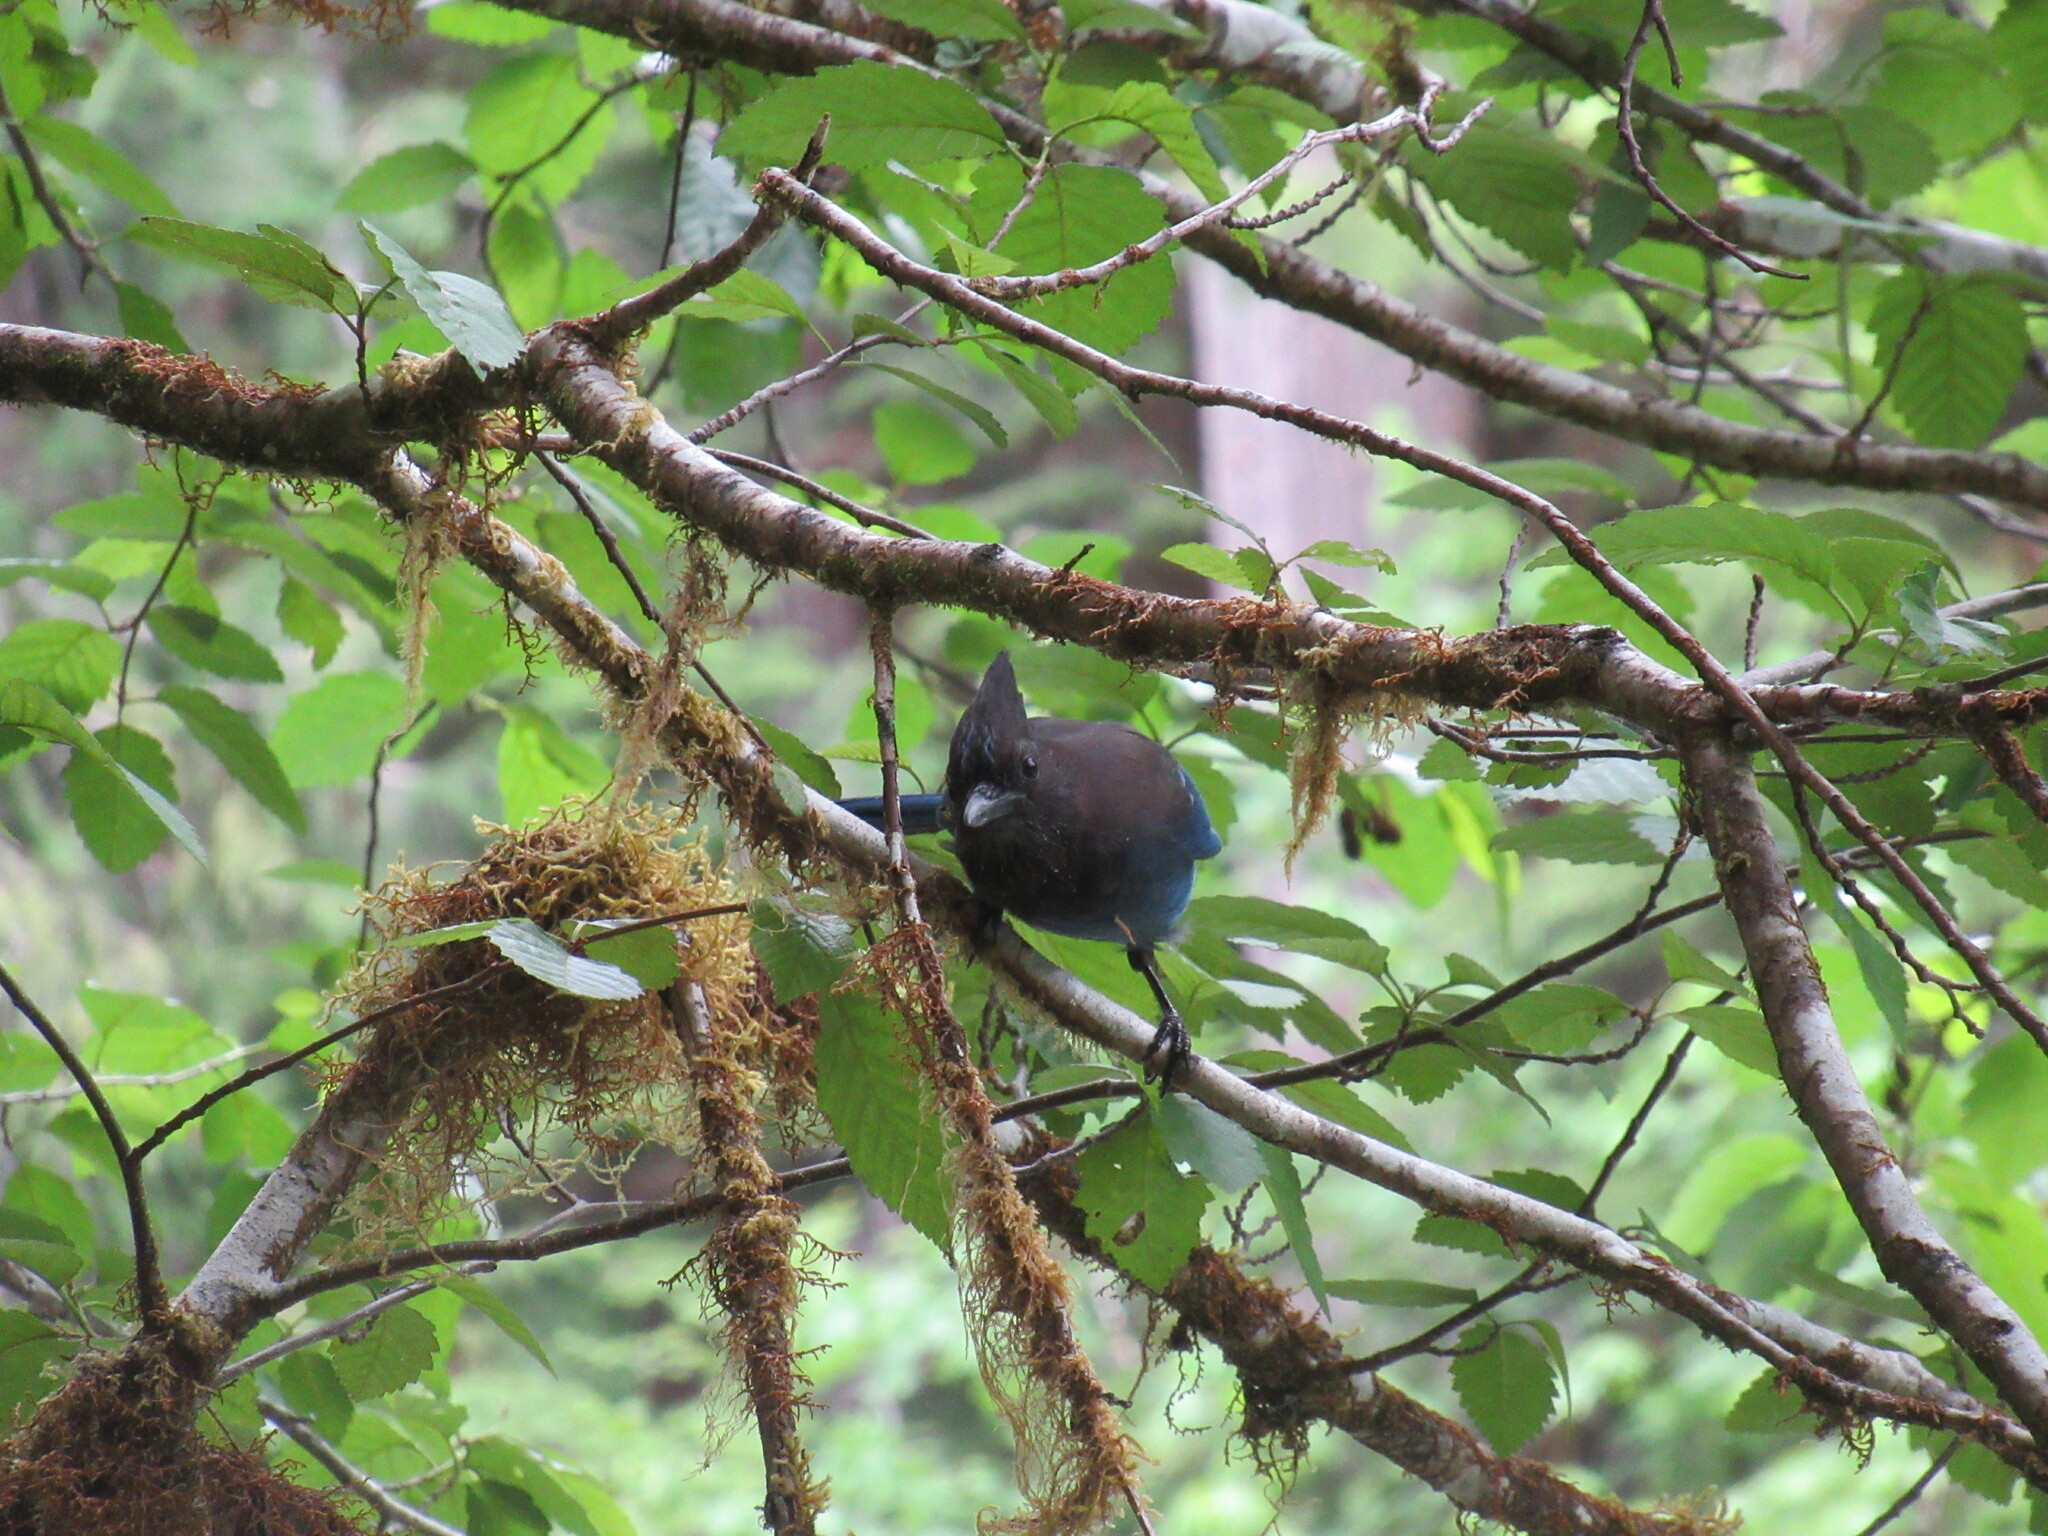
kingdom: Animalia
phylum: Chordata
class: Aves
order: Passeriformes
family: Corvidae
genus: Cyanocitta
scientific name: Cyanocitta stelleri
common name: Steller's jay
